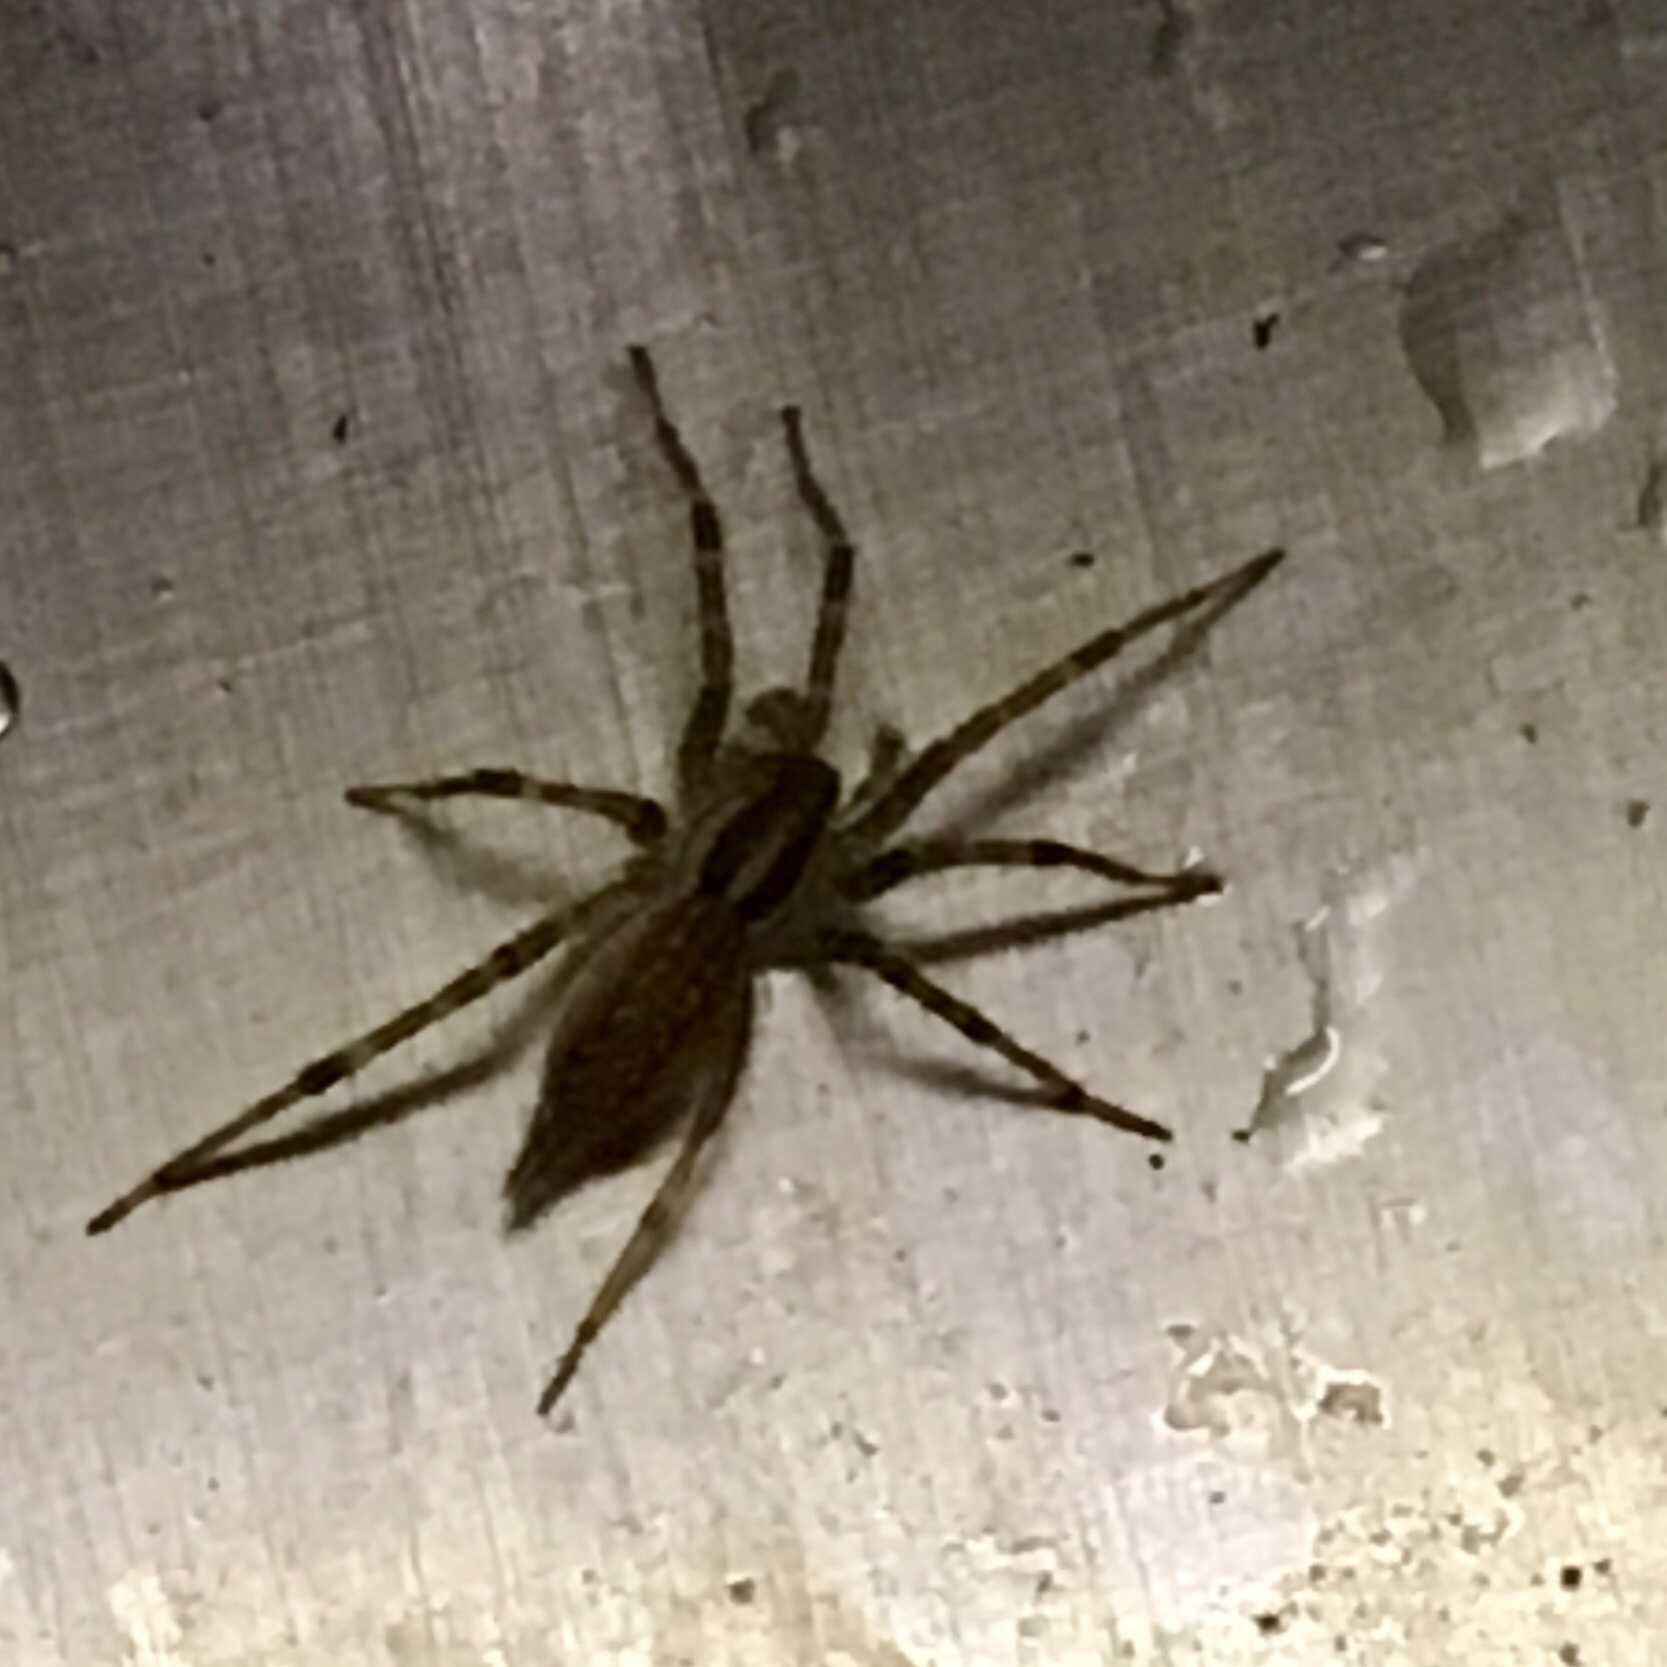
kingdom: Animalia
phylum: Arthropoda
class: Arachnida
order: Araneae
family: Agelenidae
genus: Agelenopsis
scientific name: Agelenopsis
